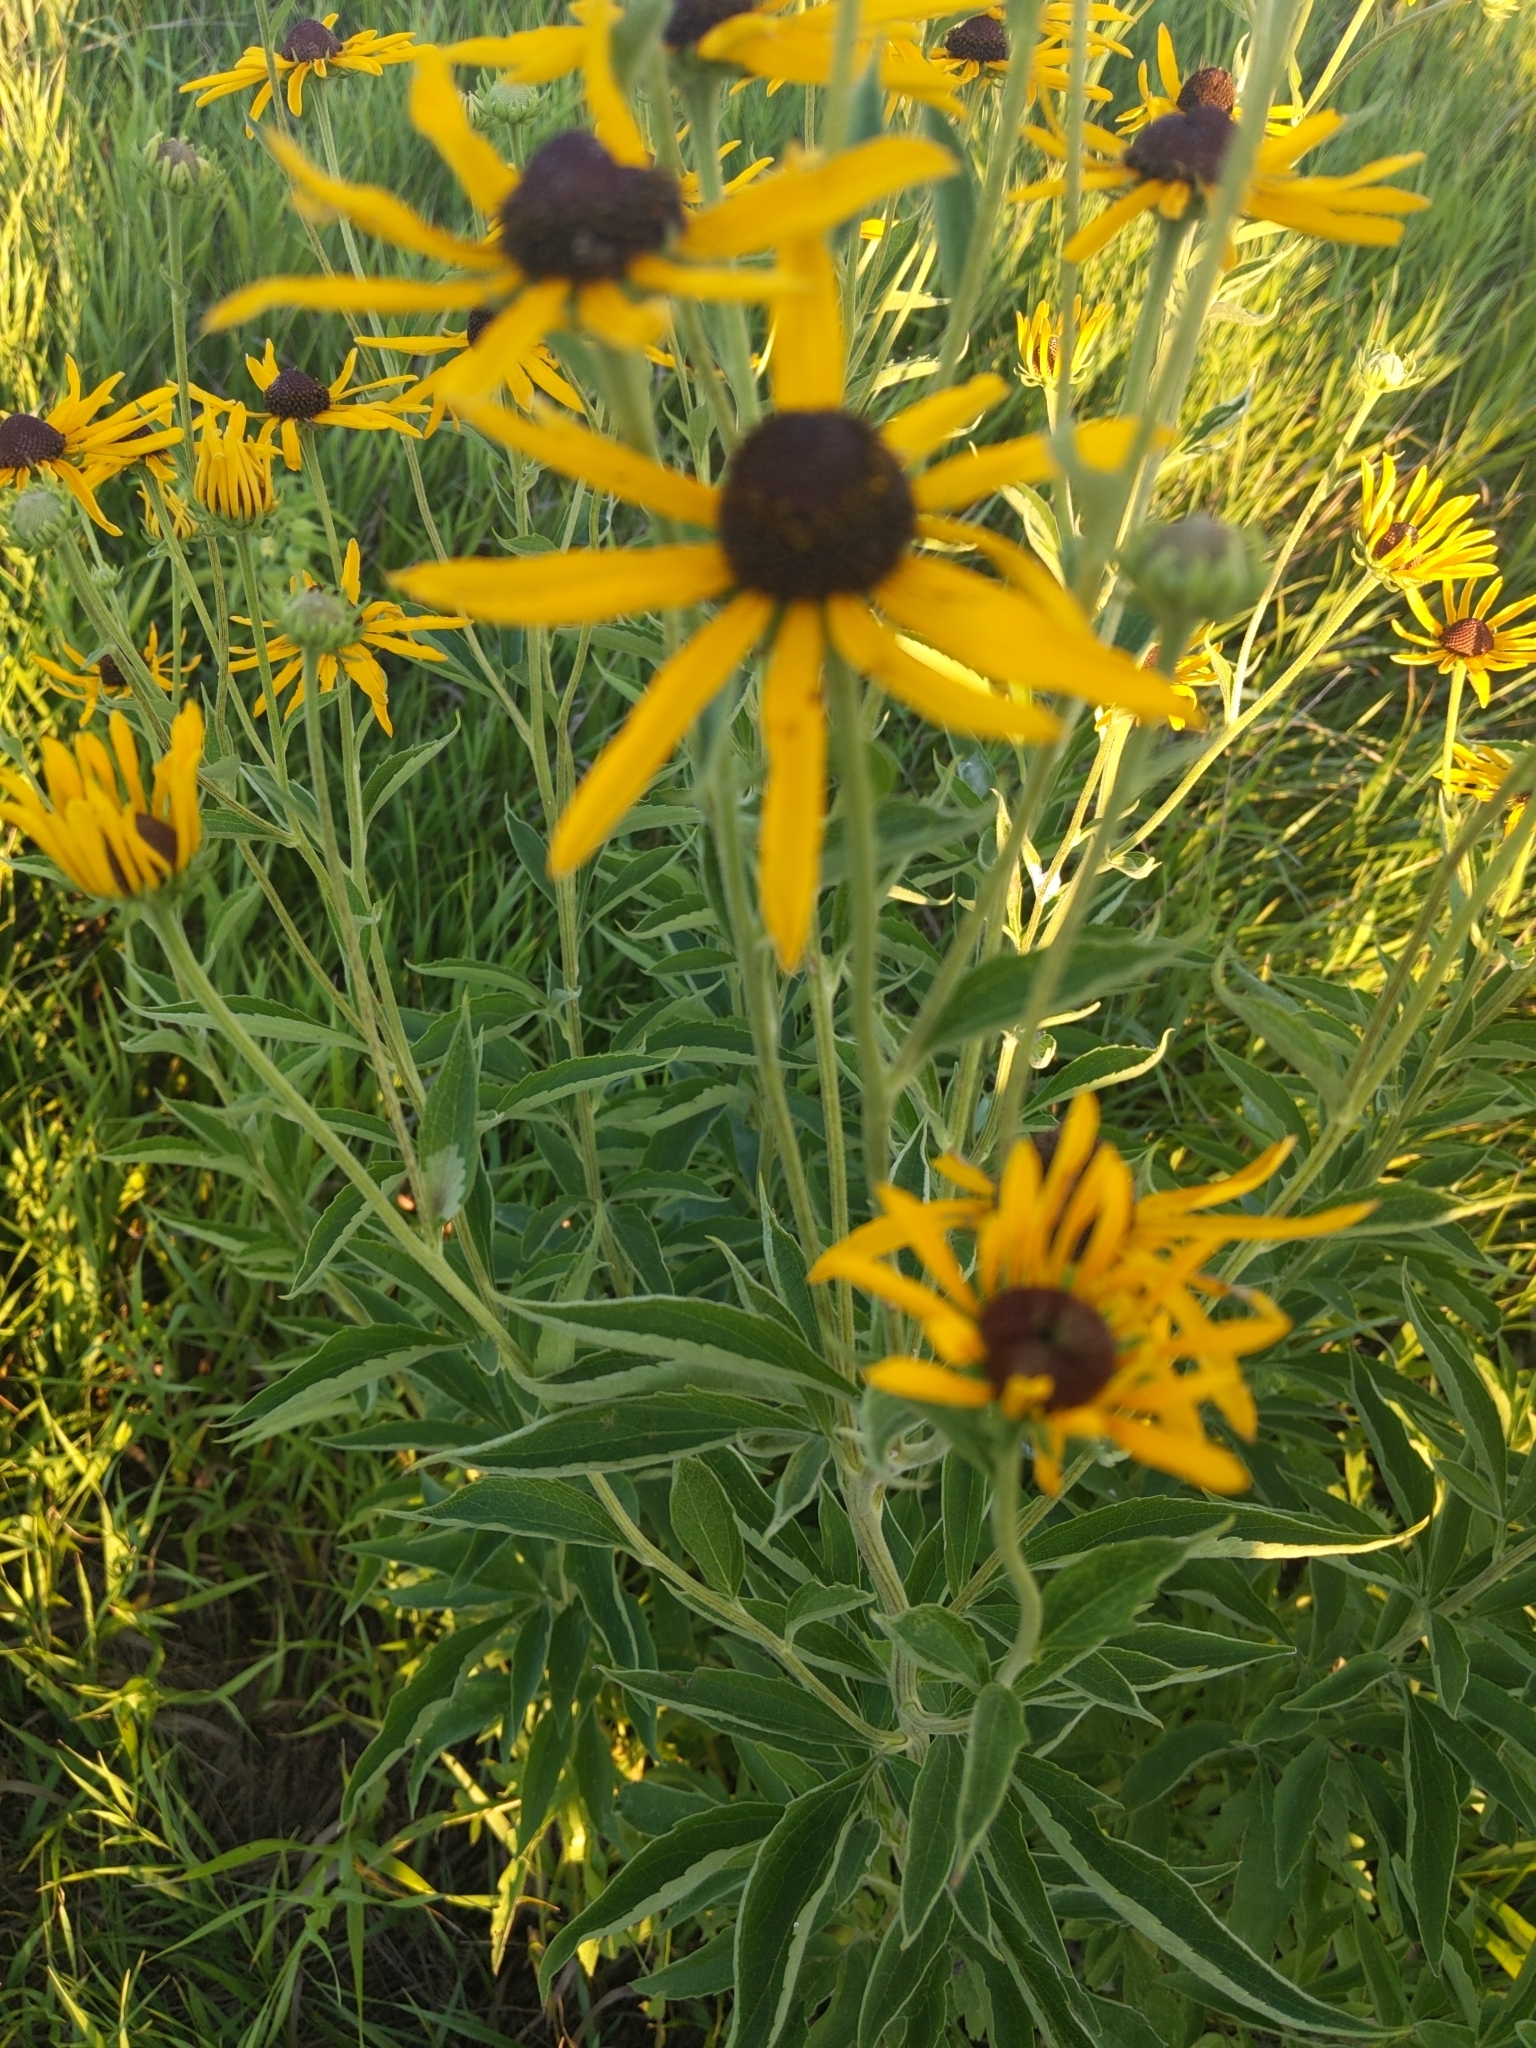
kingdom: Plantae
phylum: Tracheophyta
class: Magnoliopsida
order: Asterales
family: Asteraceae
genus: Rudbeckia
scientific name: Rudbeckia subtomentosa
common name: Sweet coneflower
